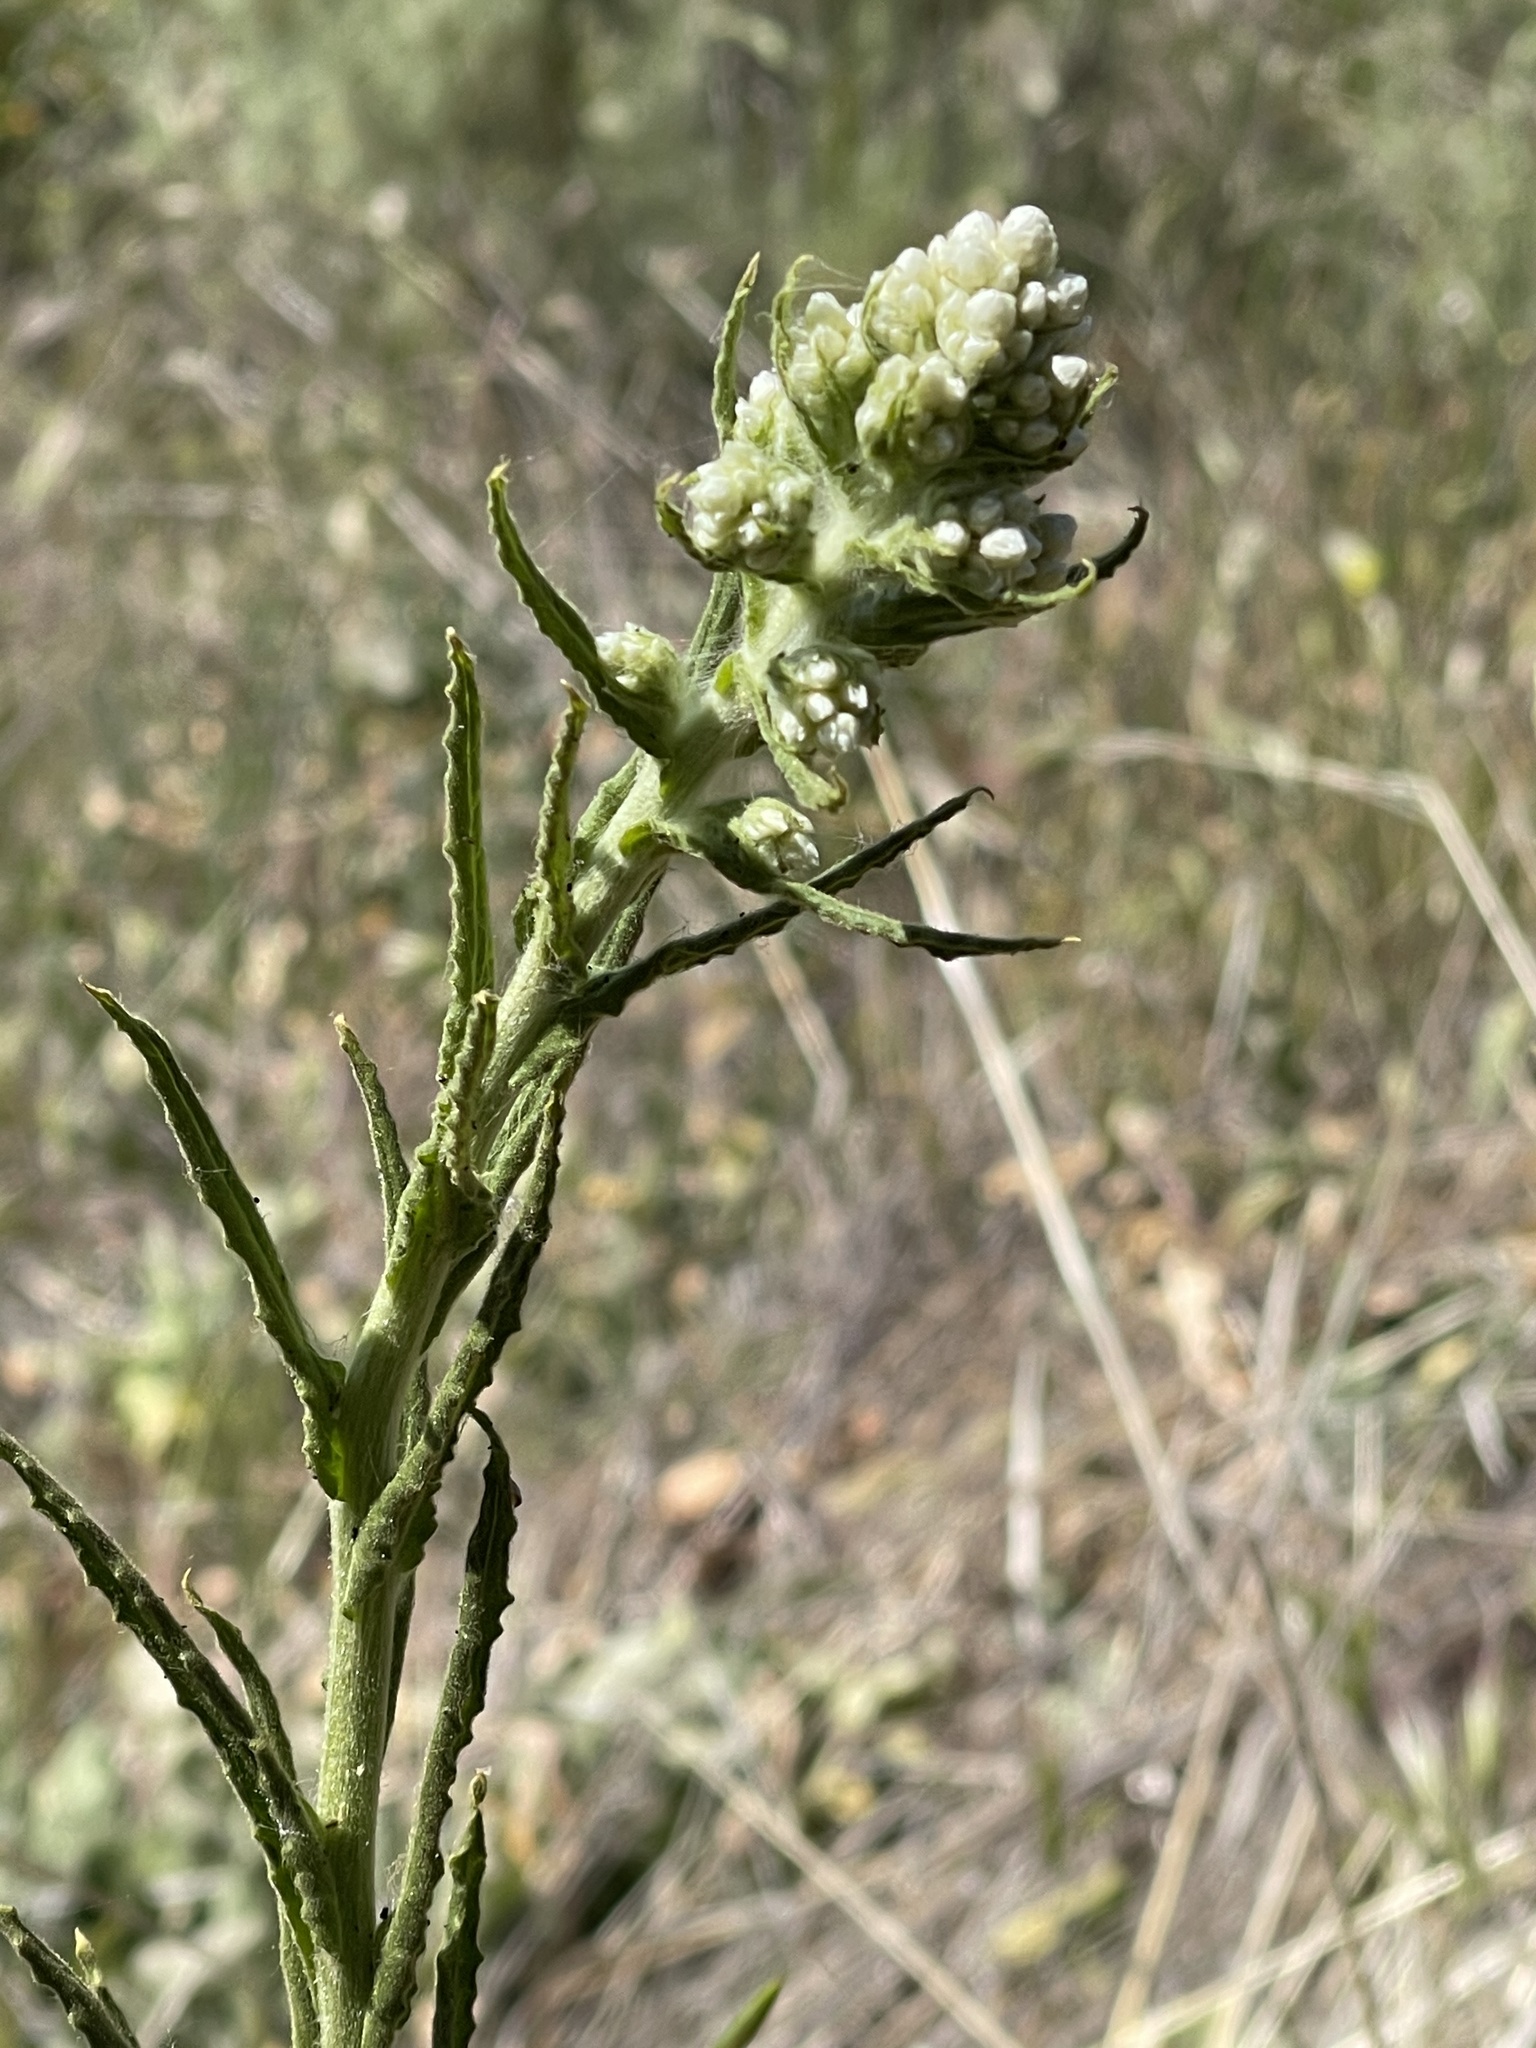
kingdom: Plantae
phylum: Tracheophyta
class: Magnoliopsida
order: Asterales
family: Asteraceae
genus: Pseudognaphalium
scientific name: Pseudognaphalium californicum
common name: California rabbit-tobacco
